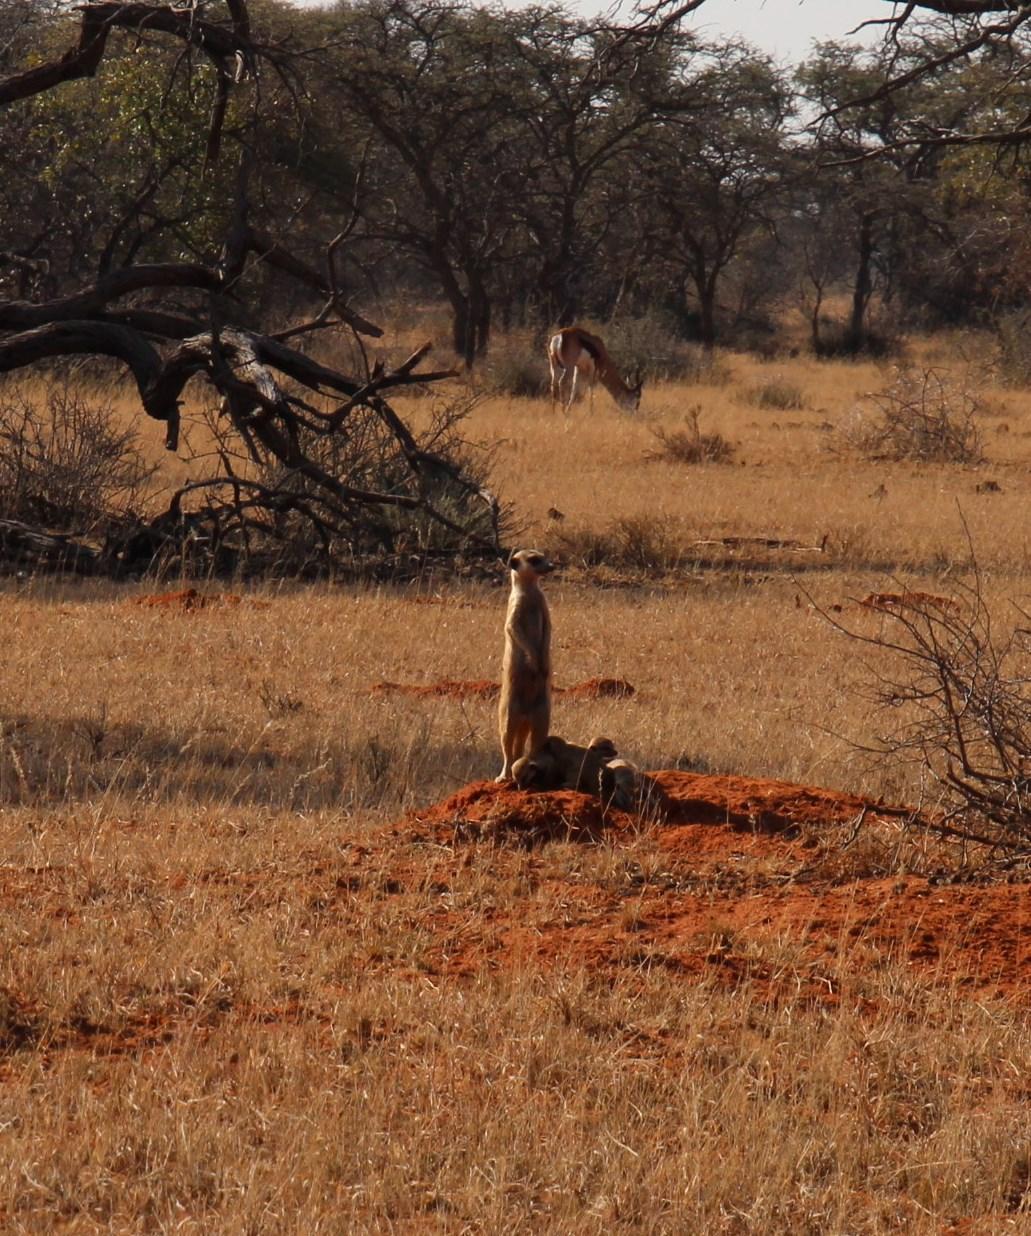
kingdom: Animalia
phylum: Chordata
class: Mammalia
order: Carnivora
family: Herpestidae
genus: Suricata
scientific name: Suricata suricatta
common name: Meerkat
